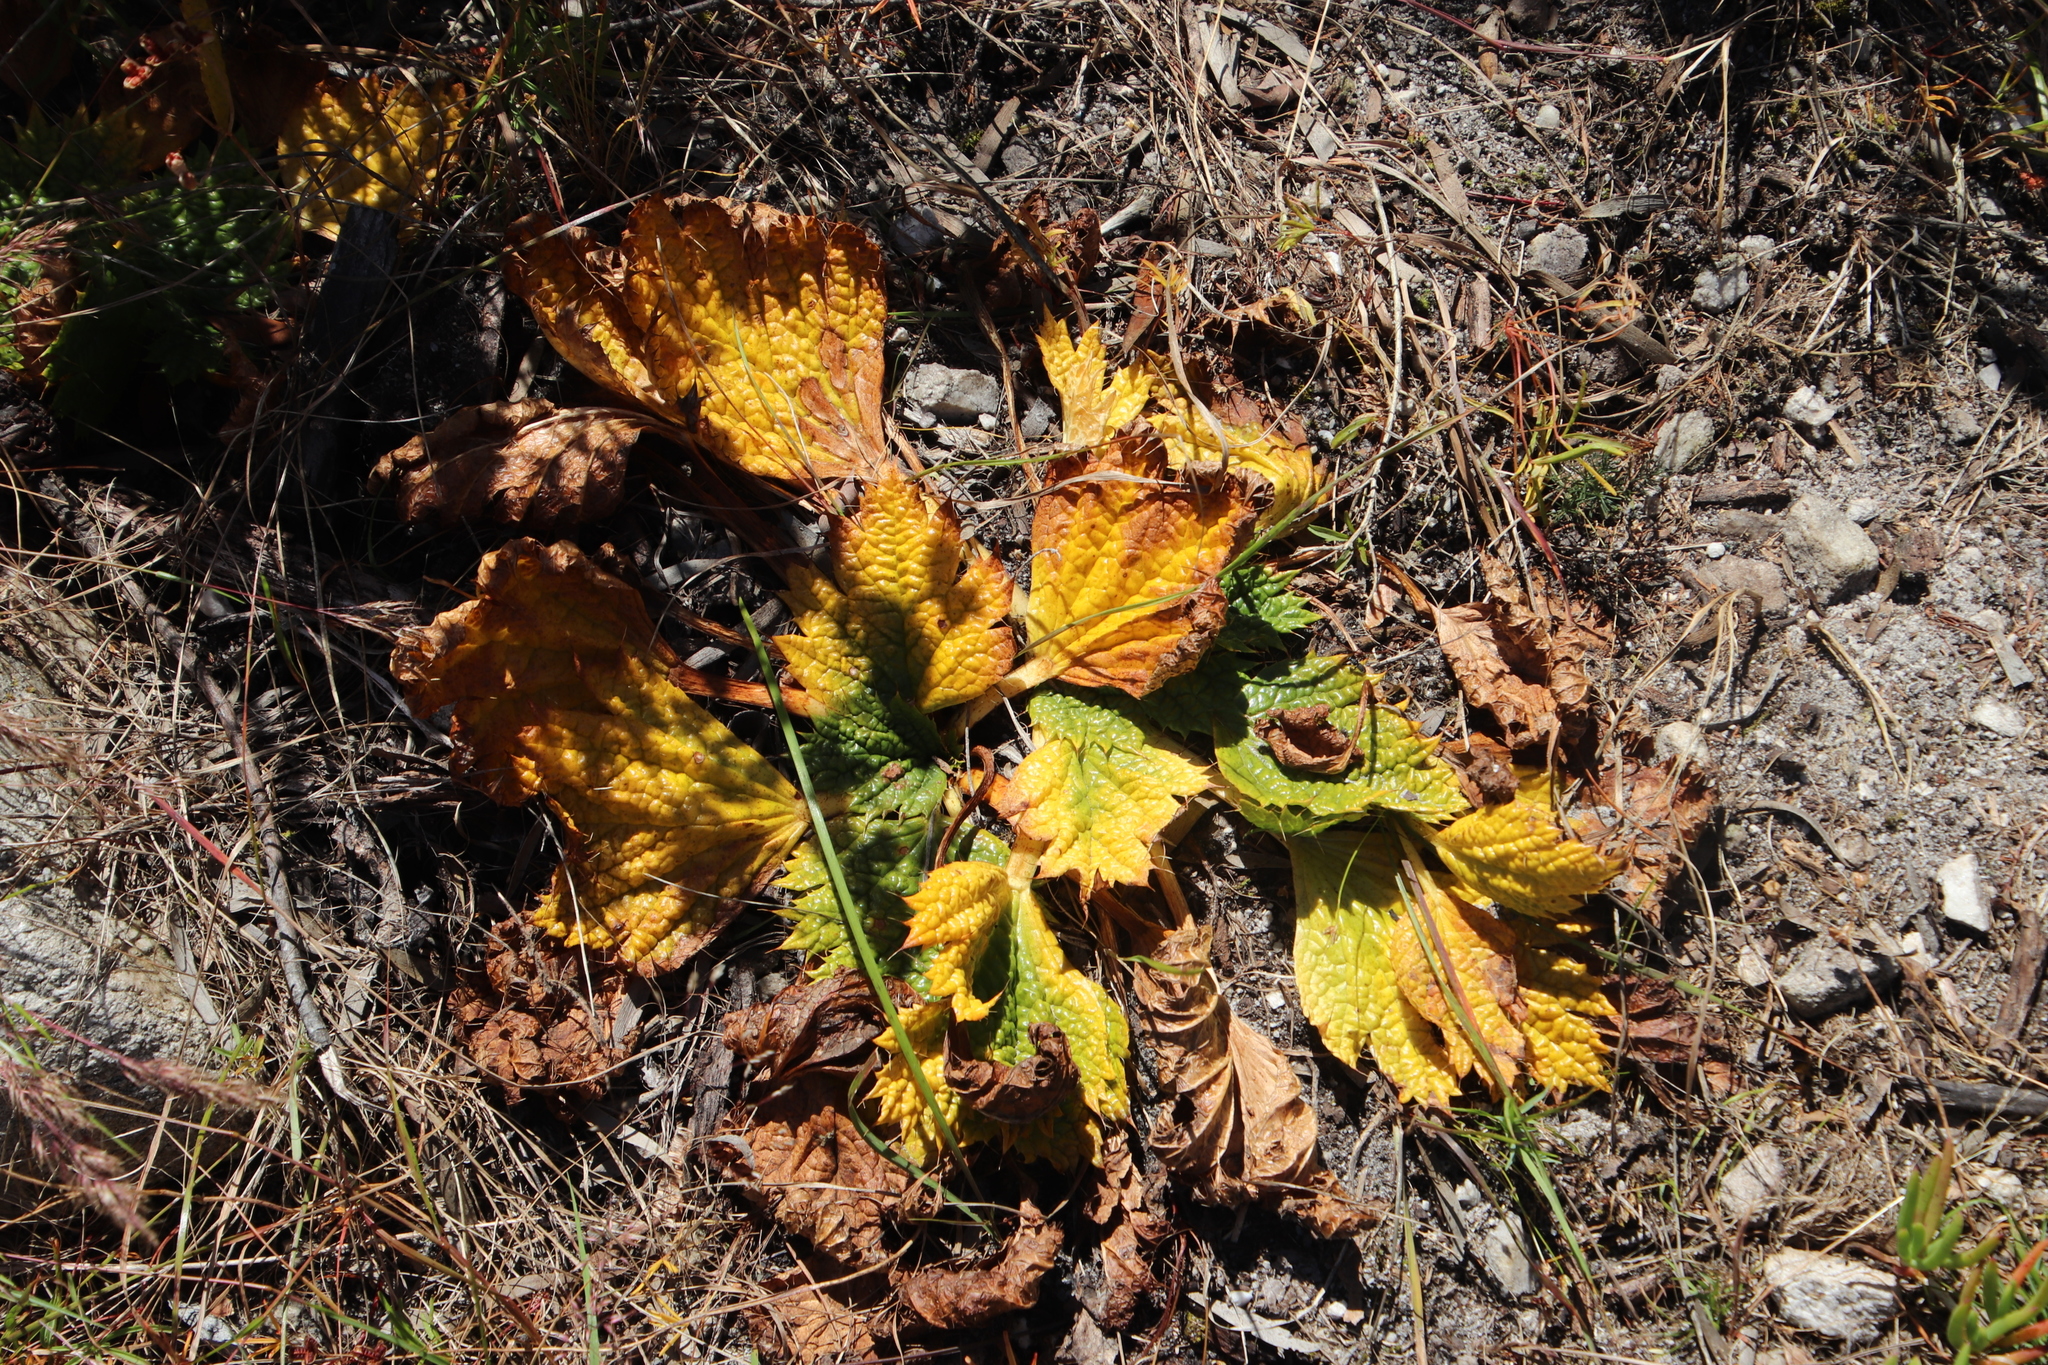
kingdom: Plantae
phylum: Tracheophyta
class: Magnoliopsida
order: Apiales
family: Apiaceae
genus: Arctopus
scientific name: Arctopus echinatus
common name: Platdoring
